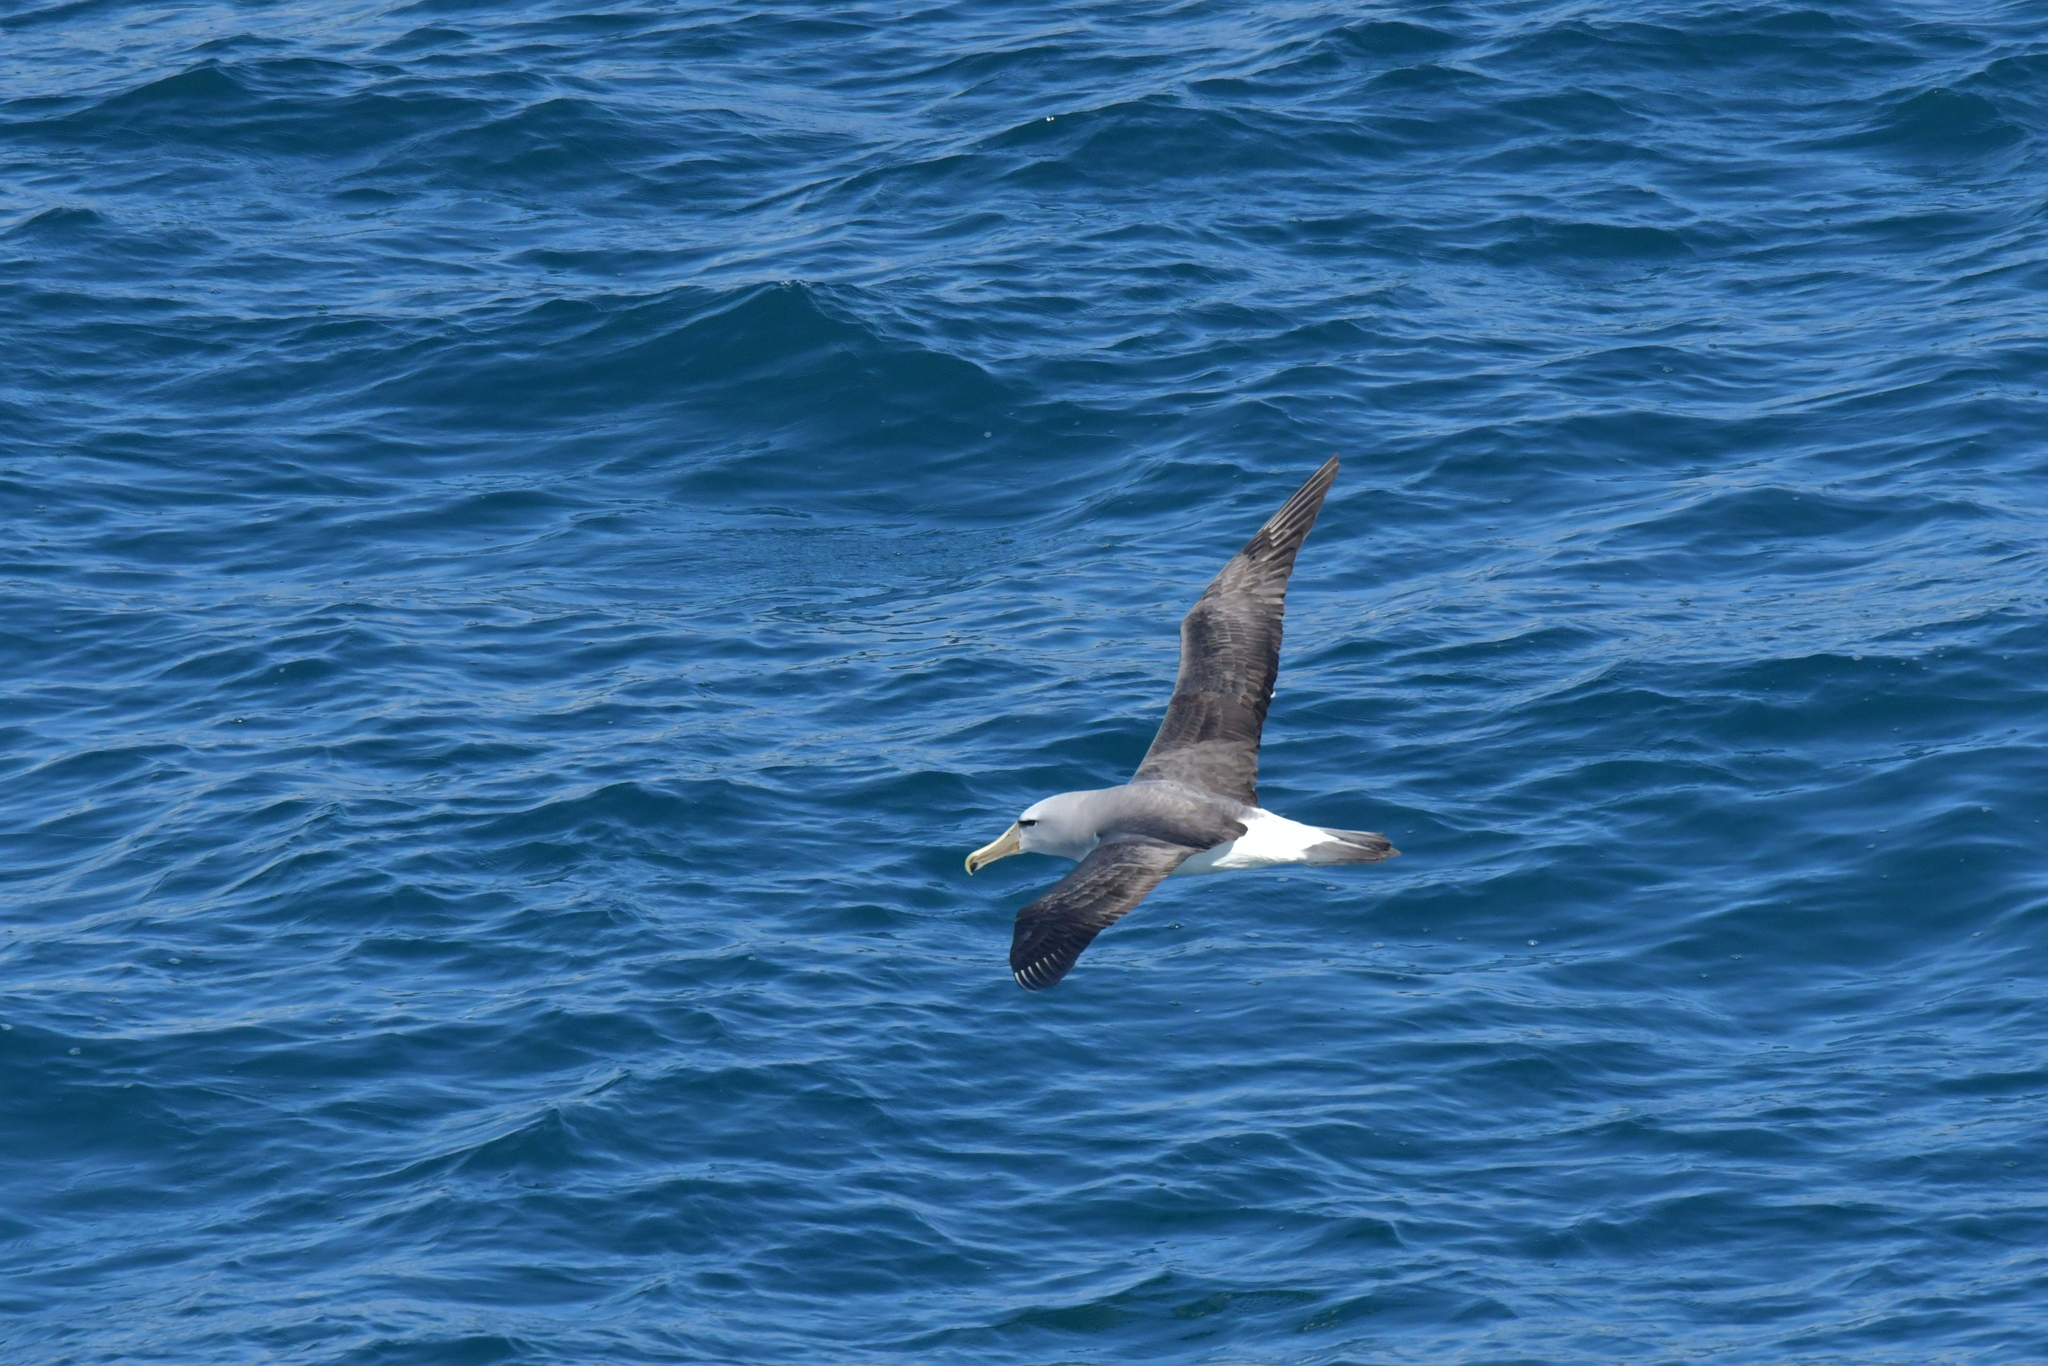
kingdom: Animalia
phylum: Chordata
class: Aves
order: Procellariiformes
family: Diomedeidae
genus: Thalassarche
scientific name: Thalassarche salvini
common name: Salvin's albatross
